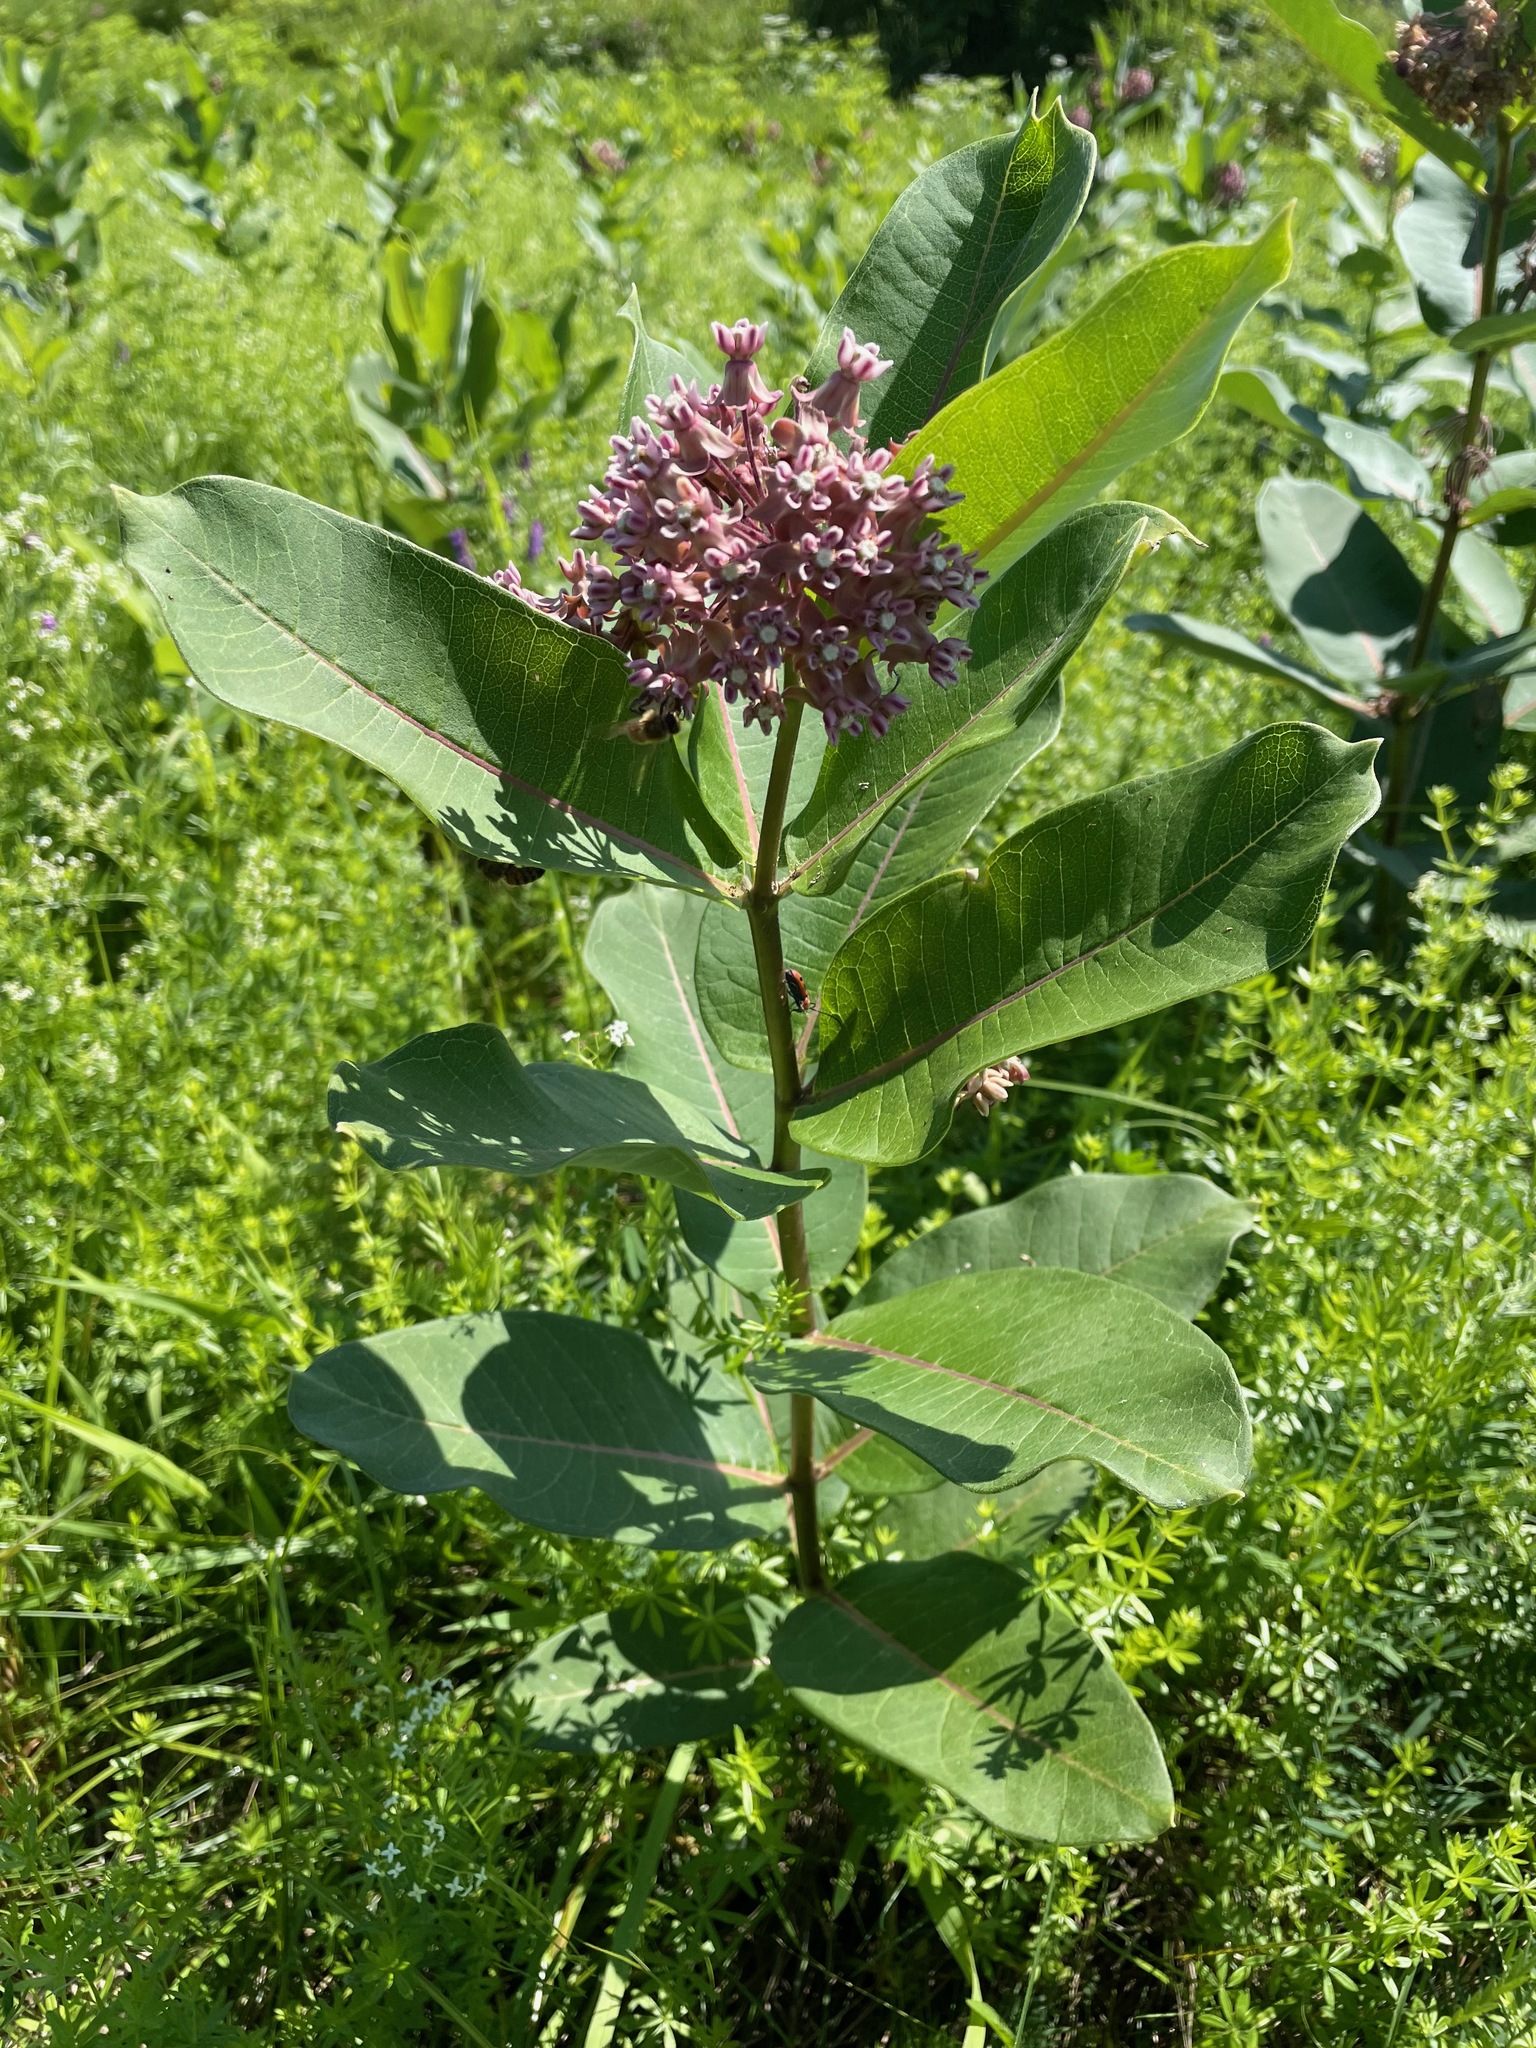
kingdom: Plantae
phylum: Tracheophyta
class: Magnoliopsida
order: Gentianales
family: Apocynaceae
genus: Asclepias
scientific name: Asclepias syriaca
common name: Common milkweed
